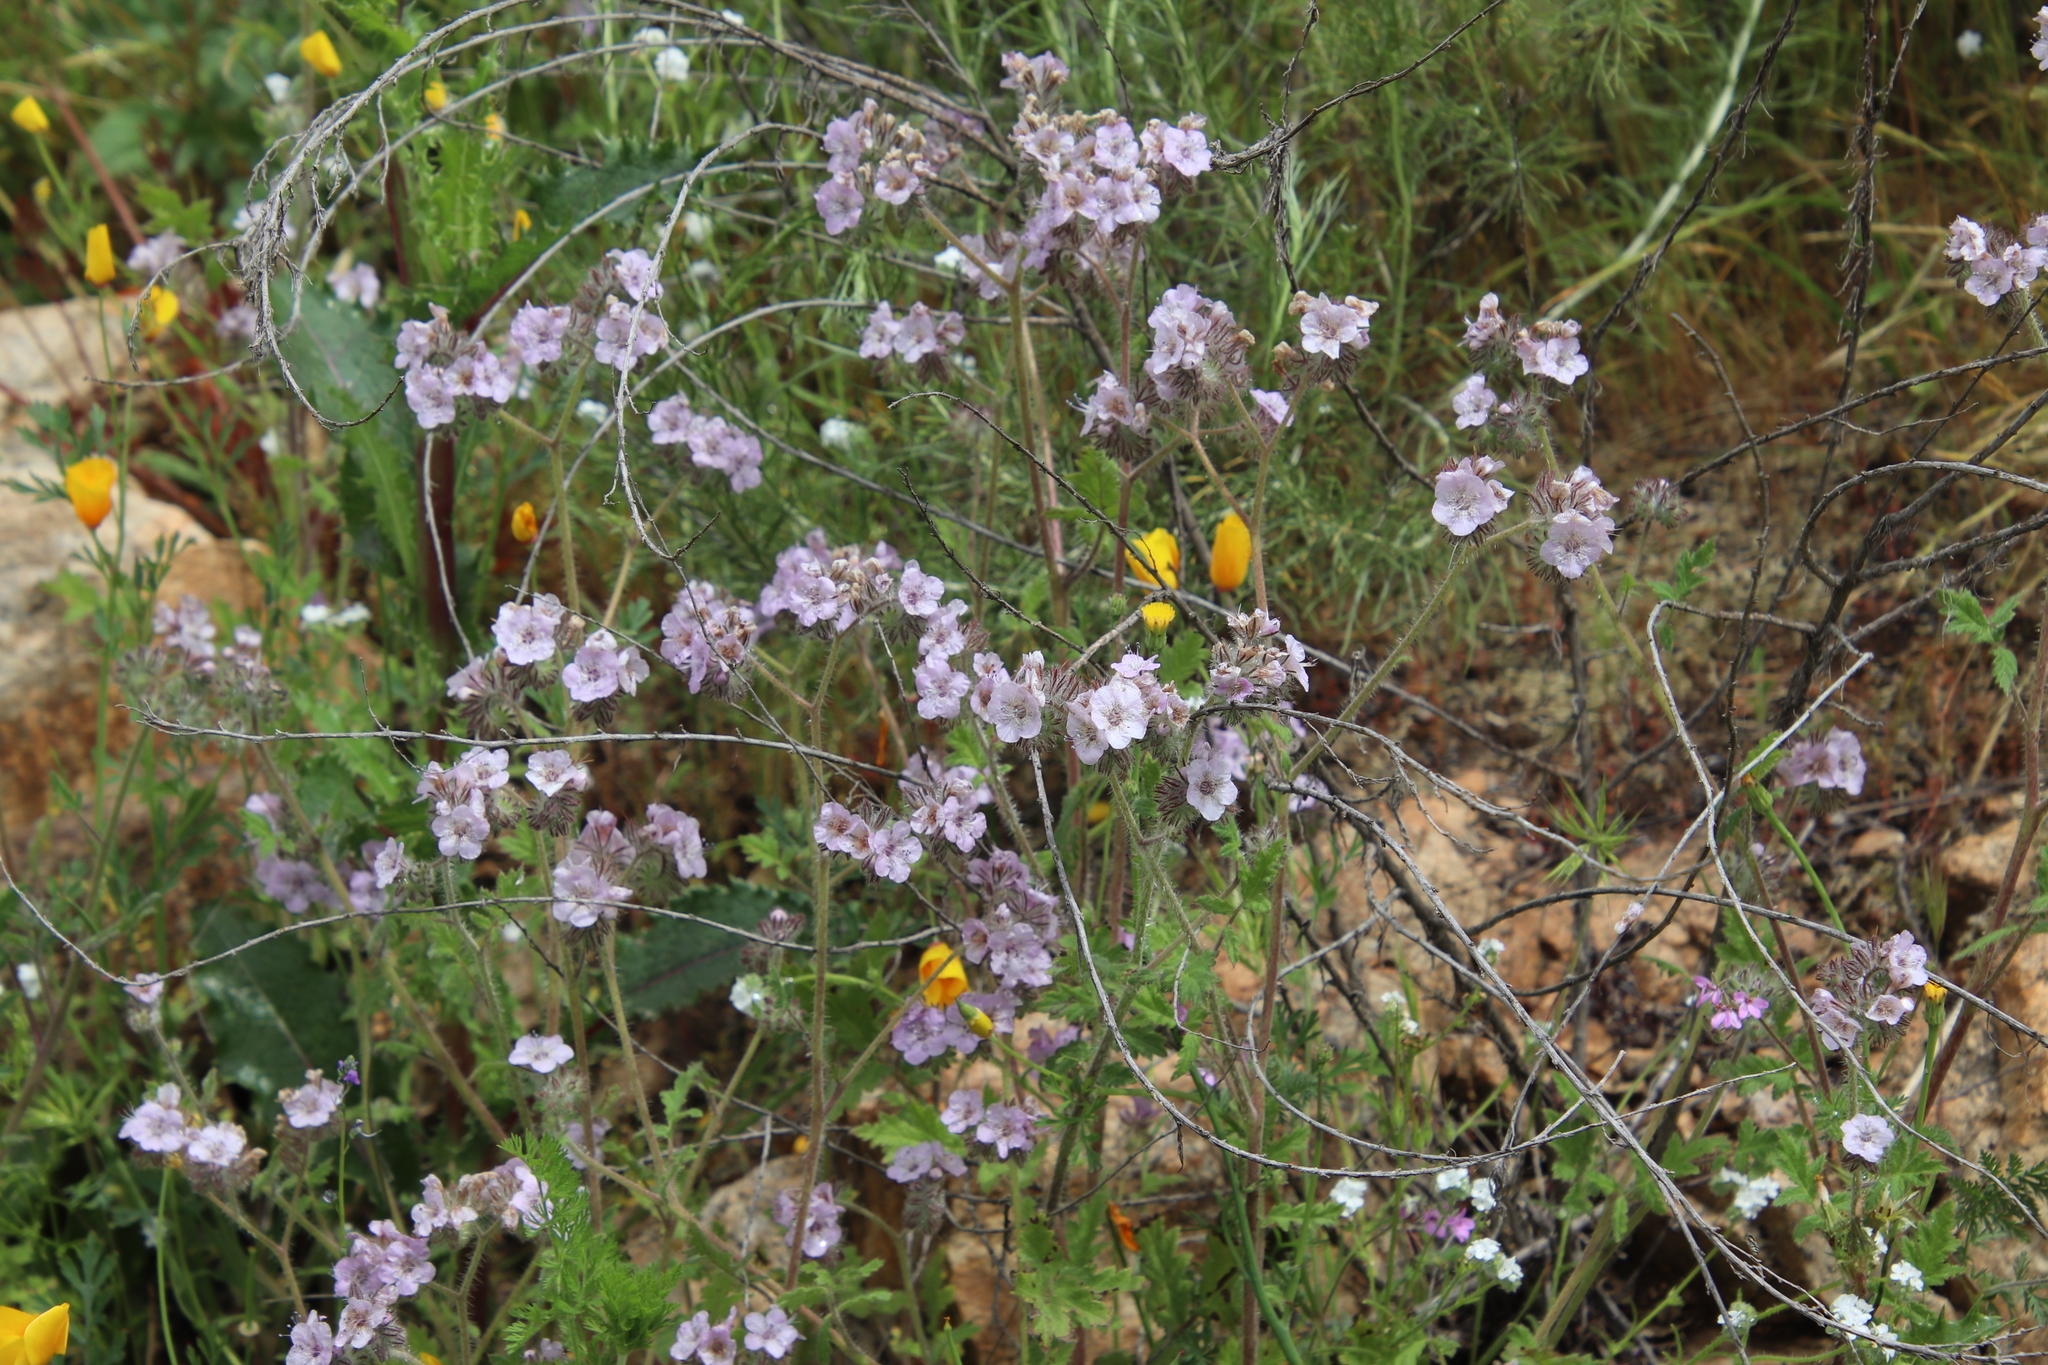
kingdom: Plantae
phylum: Tracheophyta
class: Magnoliopsida
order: Boraginales
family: Hydrophyllaceae
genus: Phacelia
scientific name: Phacelia cicutaria
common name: Caterpillar phacelia
